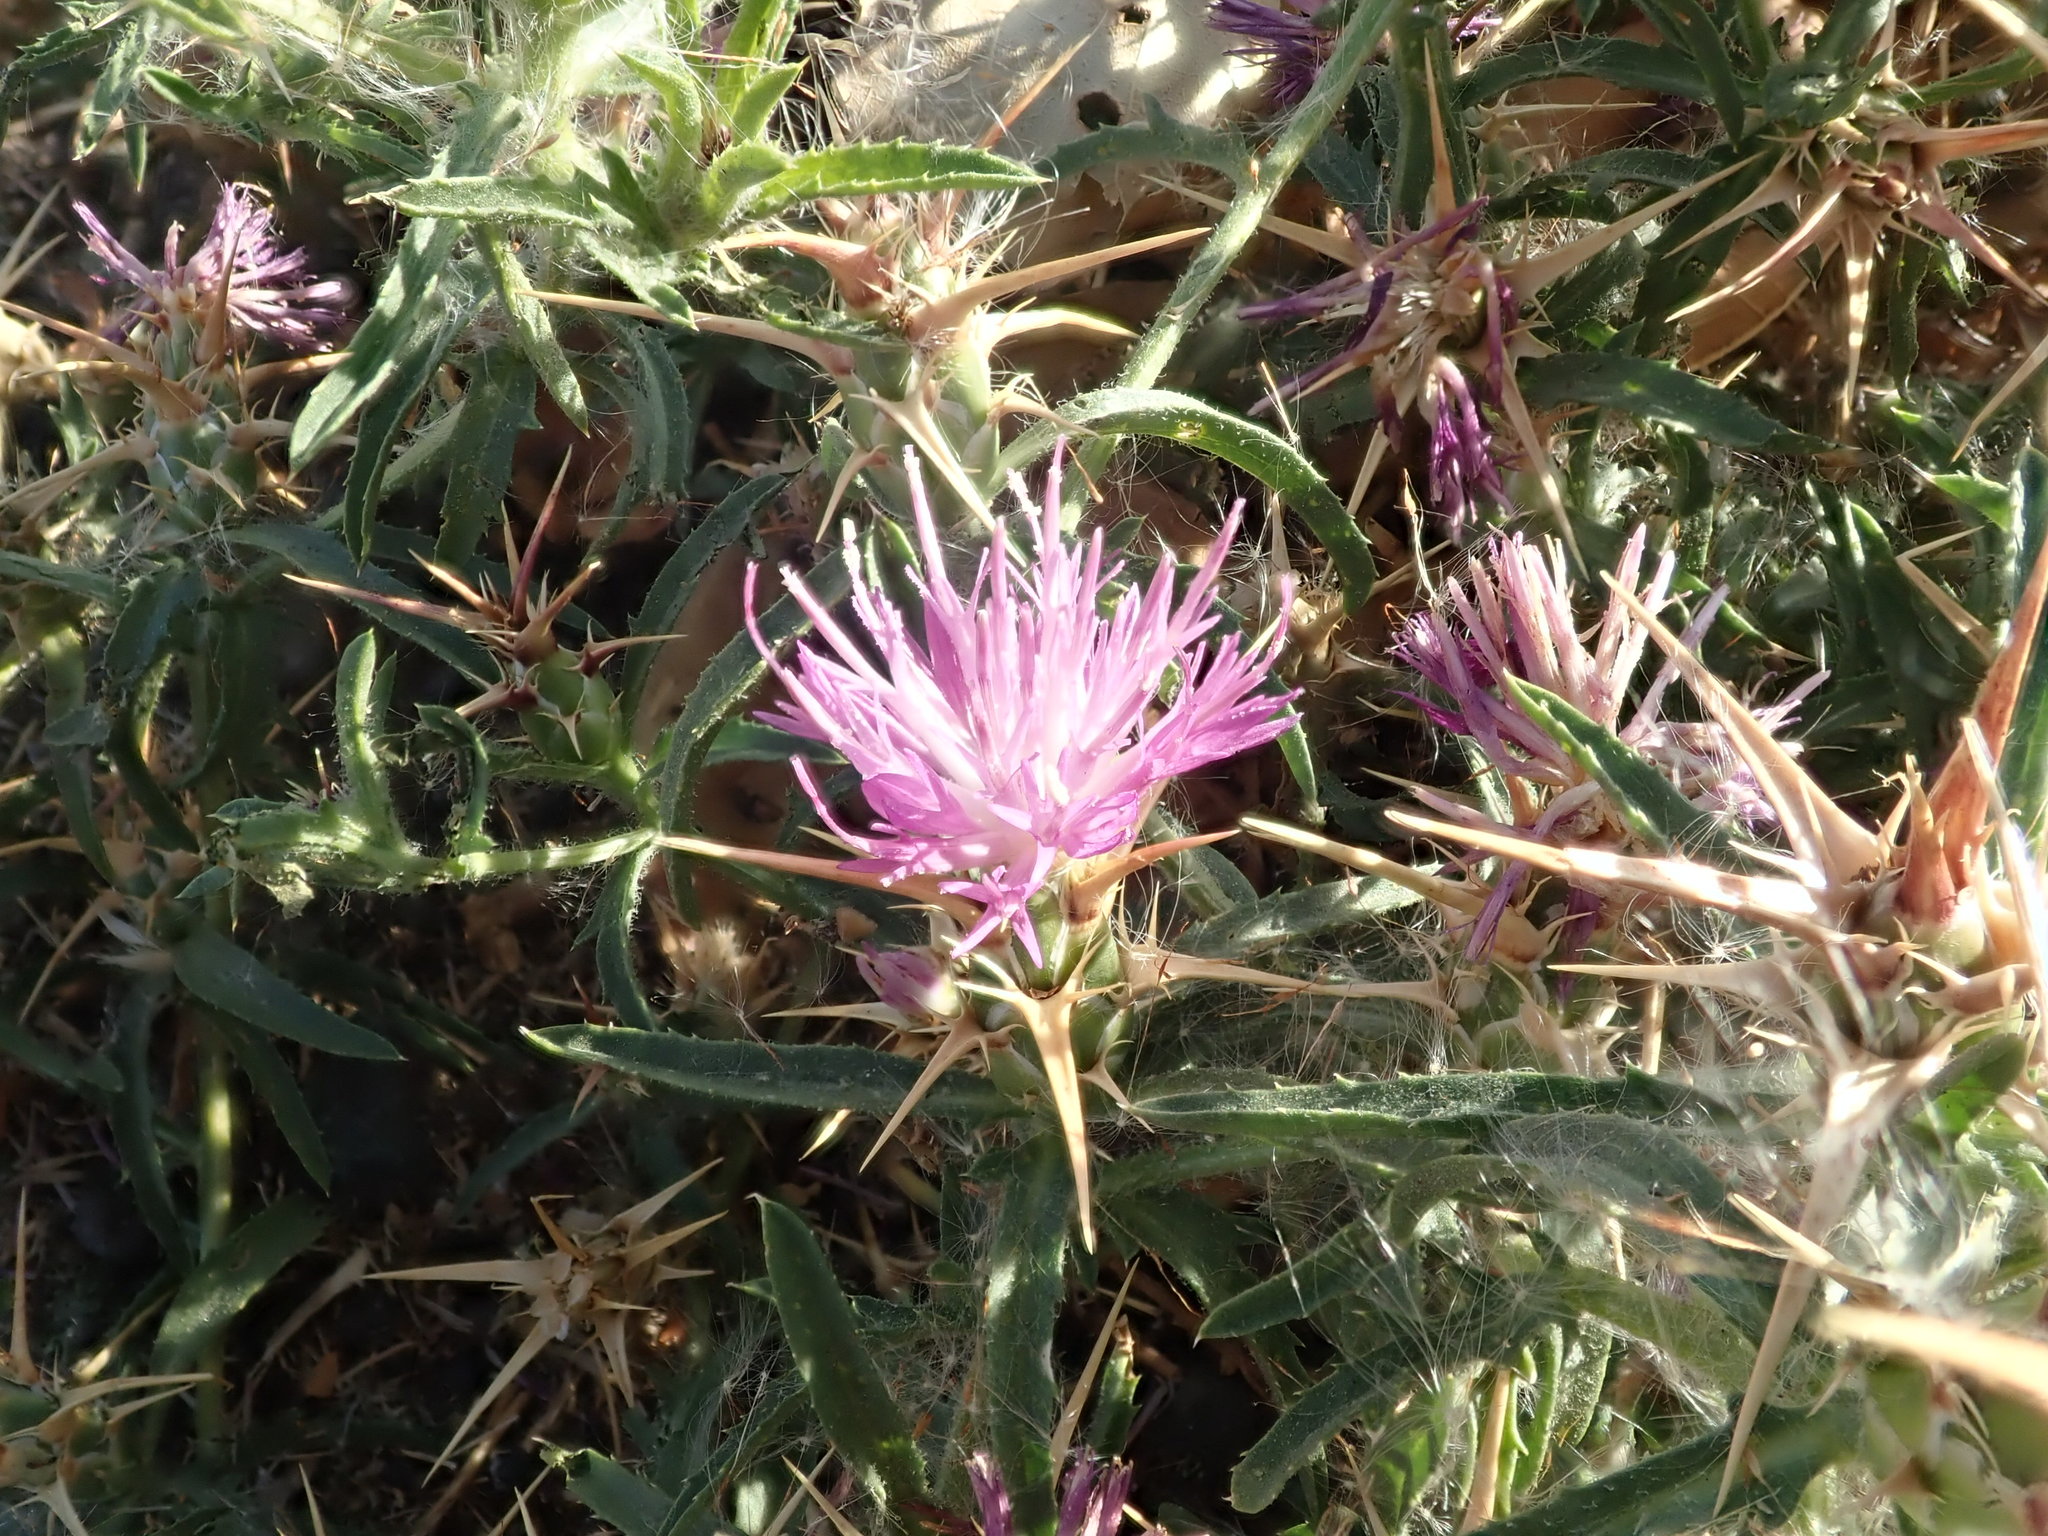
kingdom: Plantae
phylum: Tracheophyta
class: Magnoliopsida
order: Asterales
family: Asteraceae
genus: Centaurea
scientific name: Centaurea calcitrapa
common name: Red star-thistle
